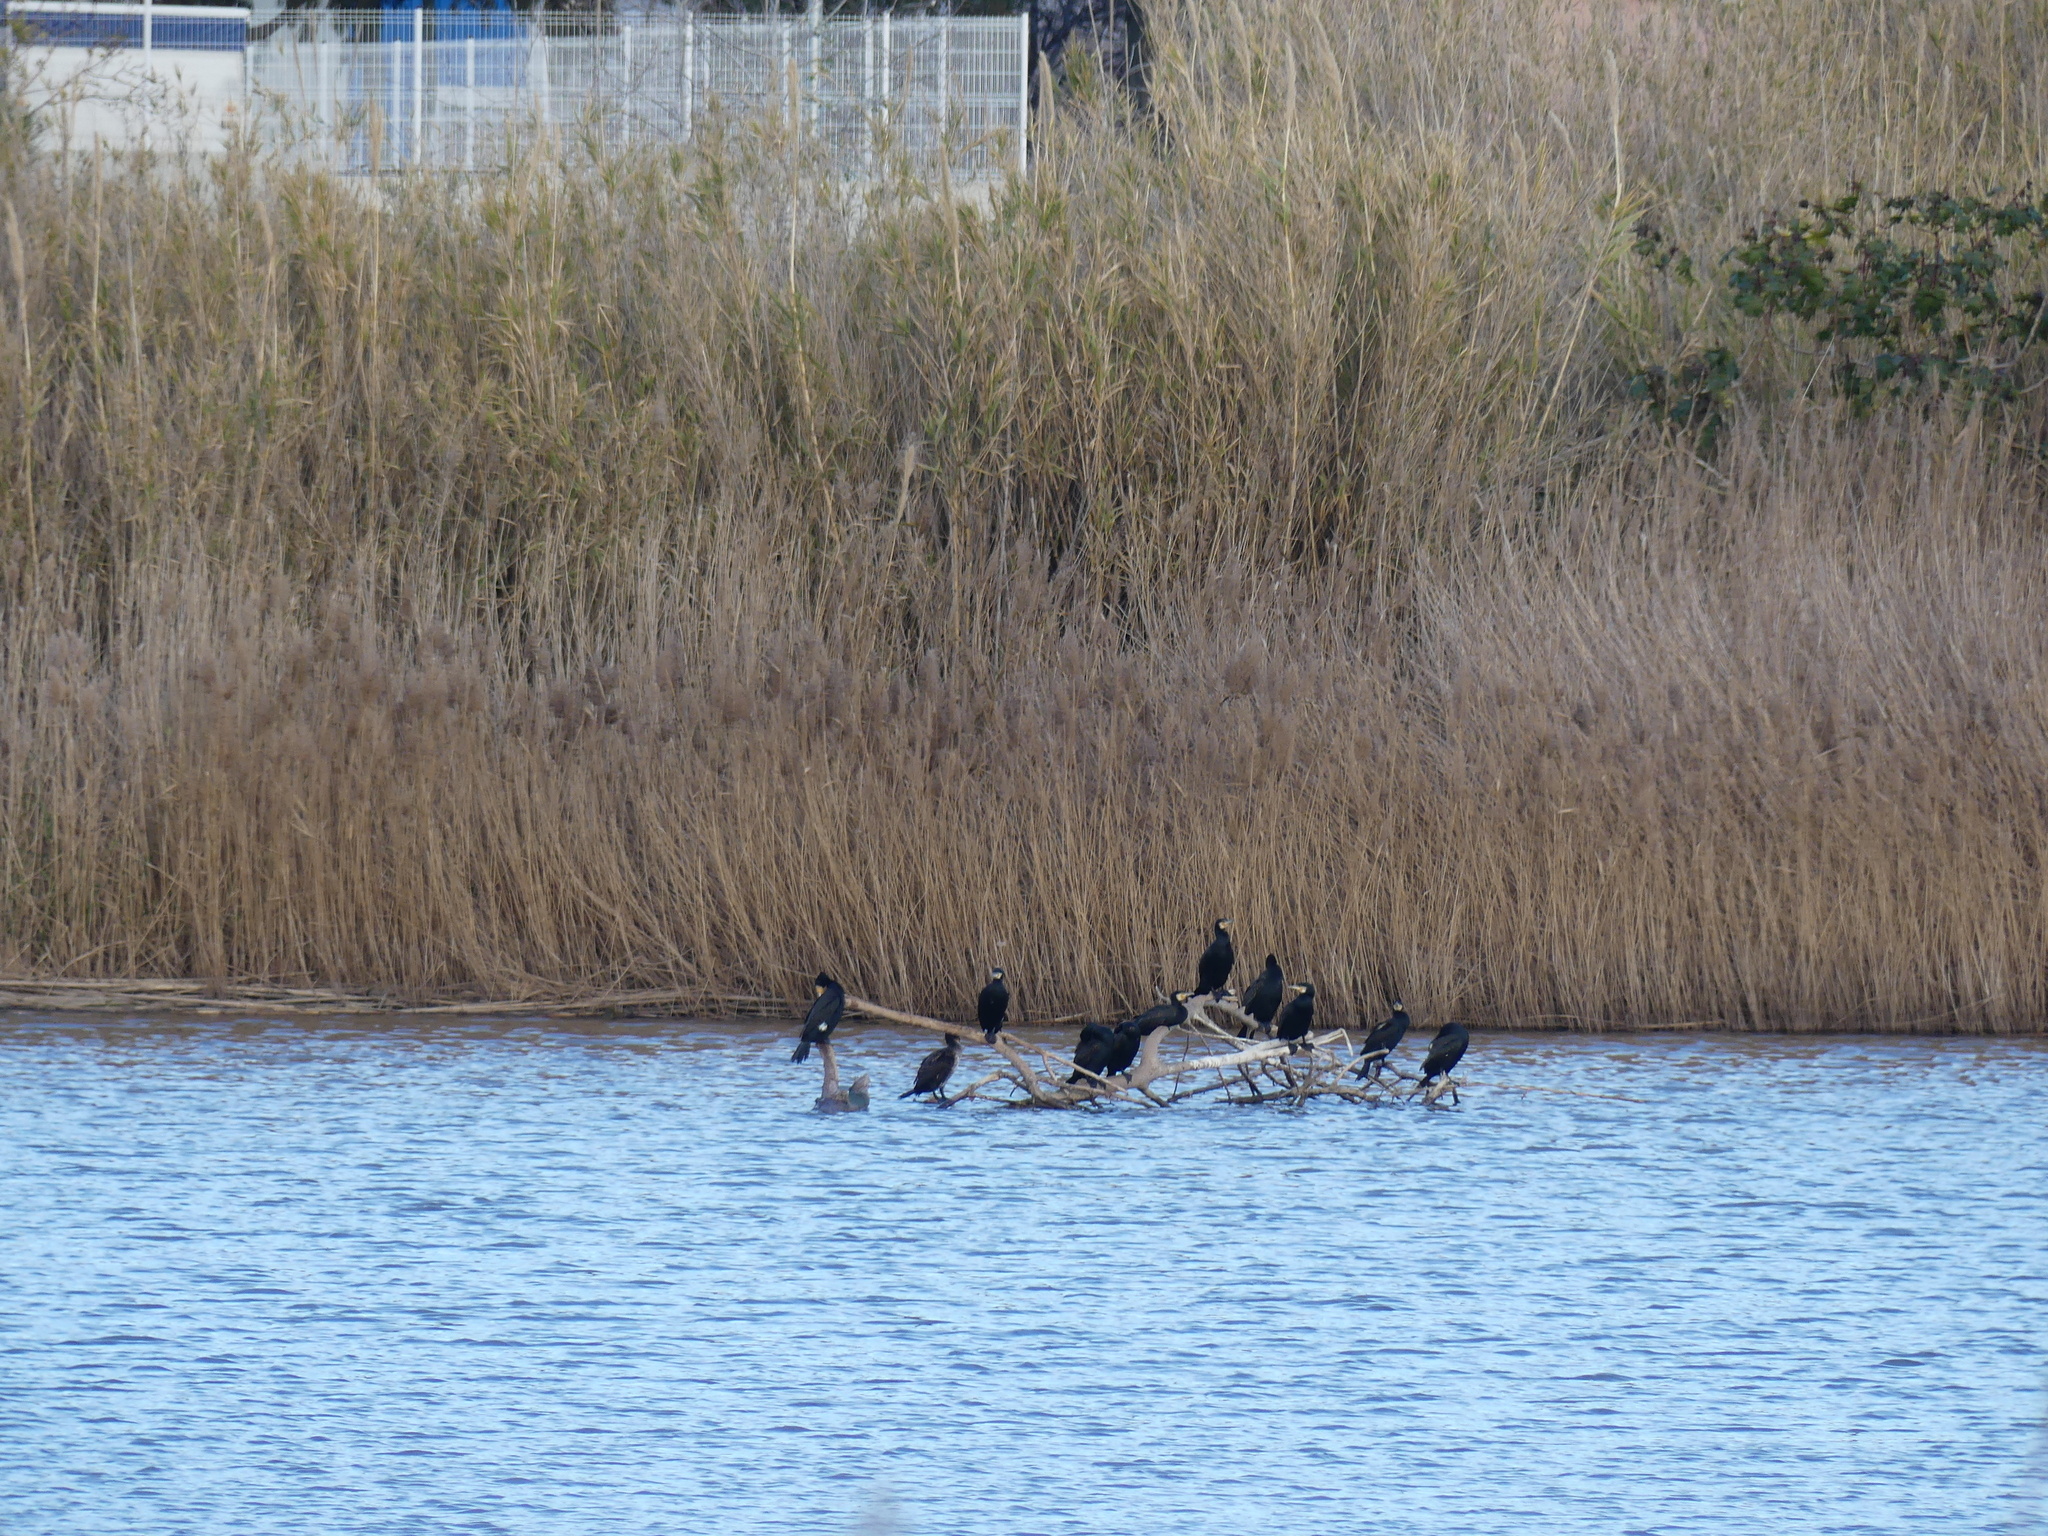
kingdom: Animalia
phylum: Chordata
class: Aves
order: Suliformes
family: Phalacrocoracidae
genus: Phalacrocorax
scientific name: Phalacrocorax carbo
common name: Great cormorant
